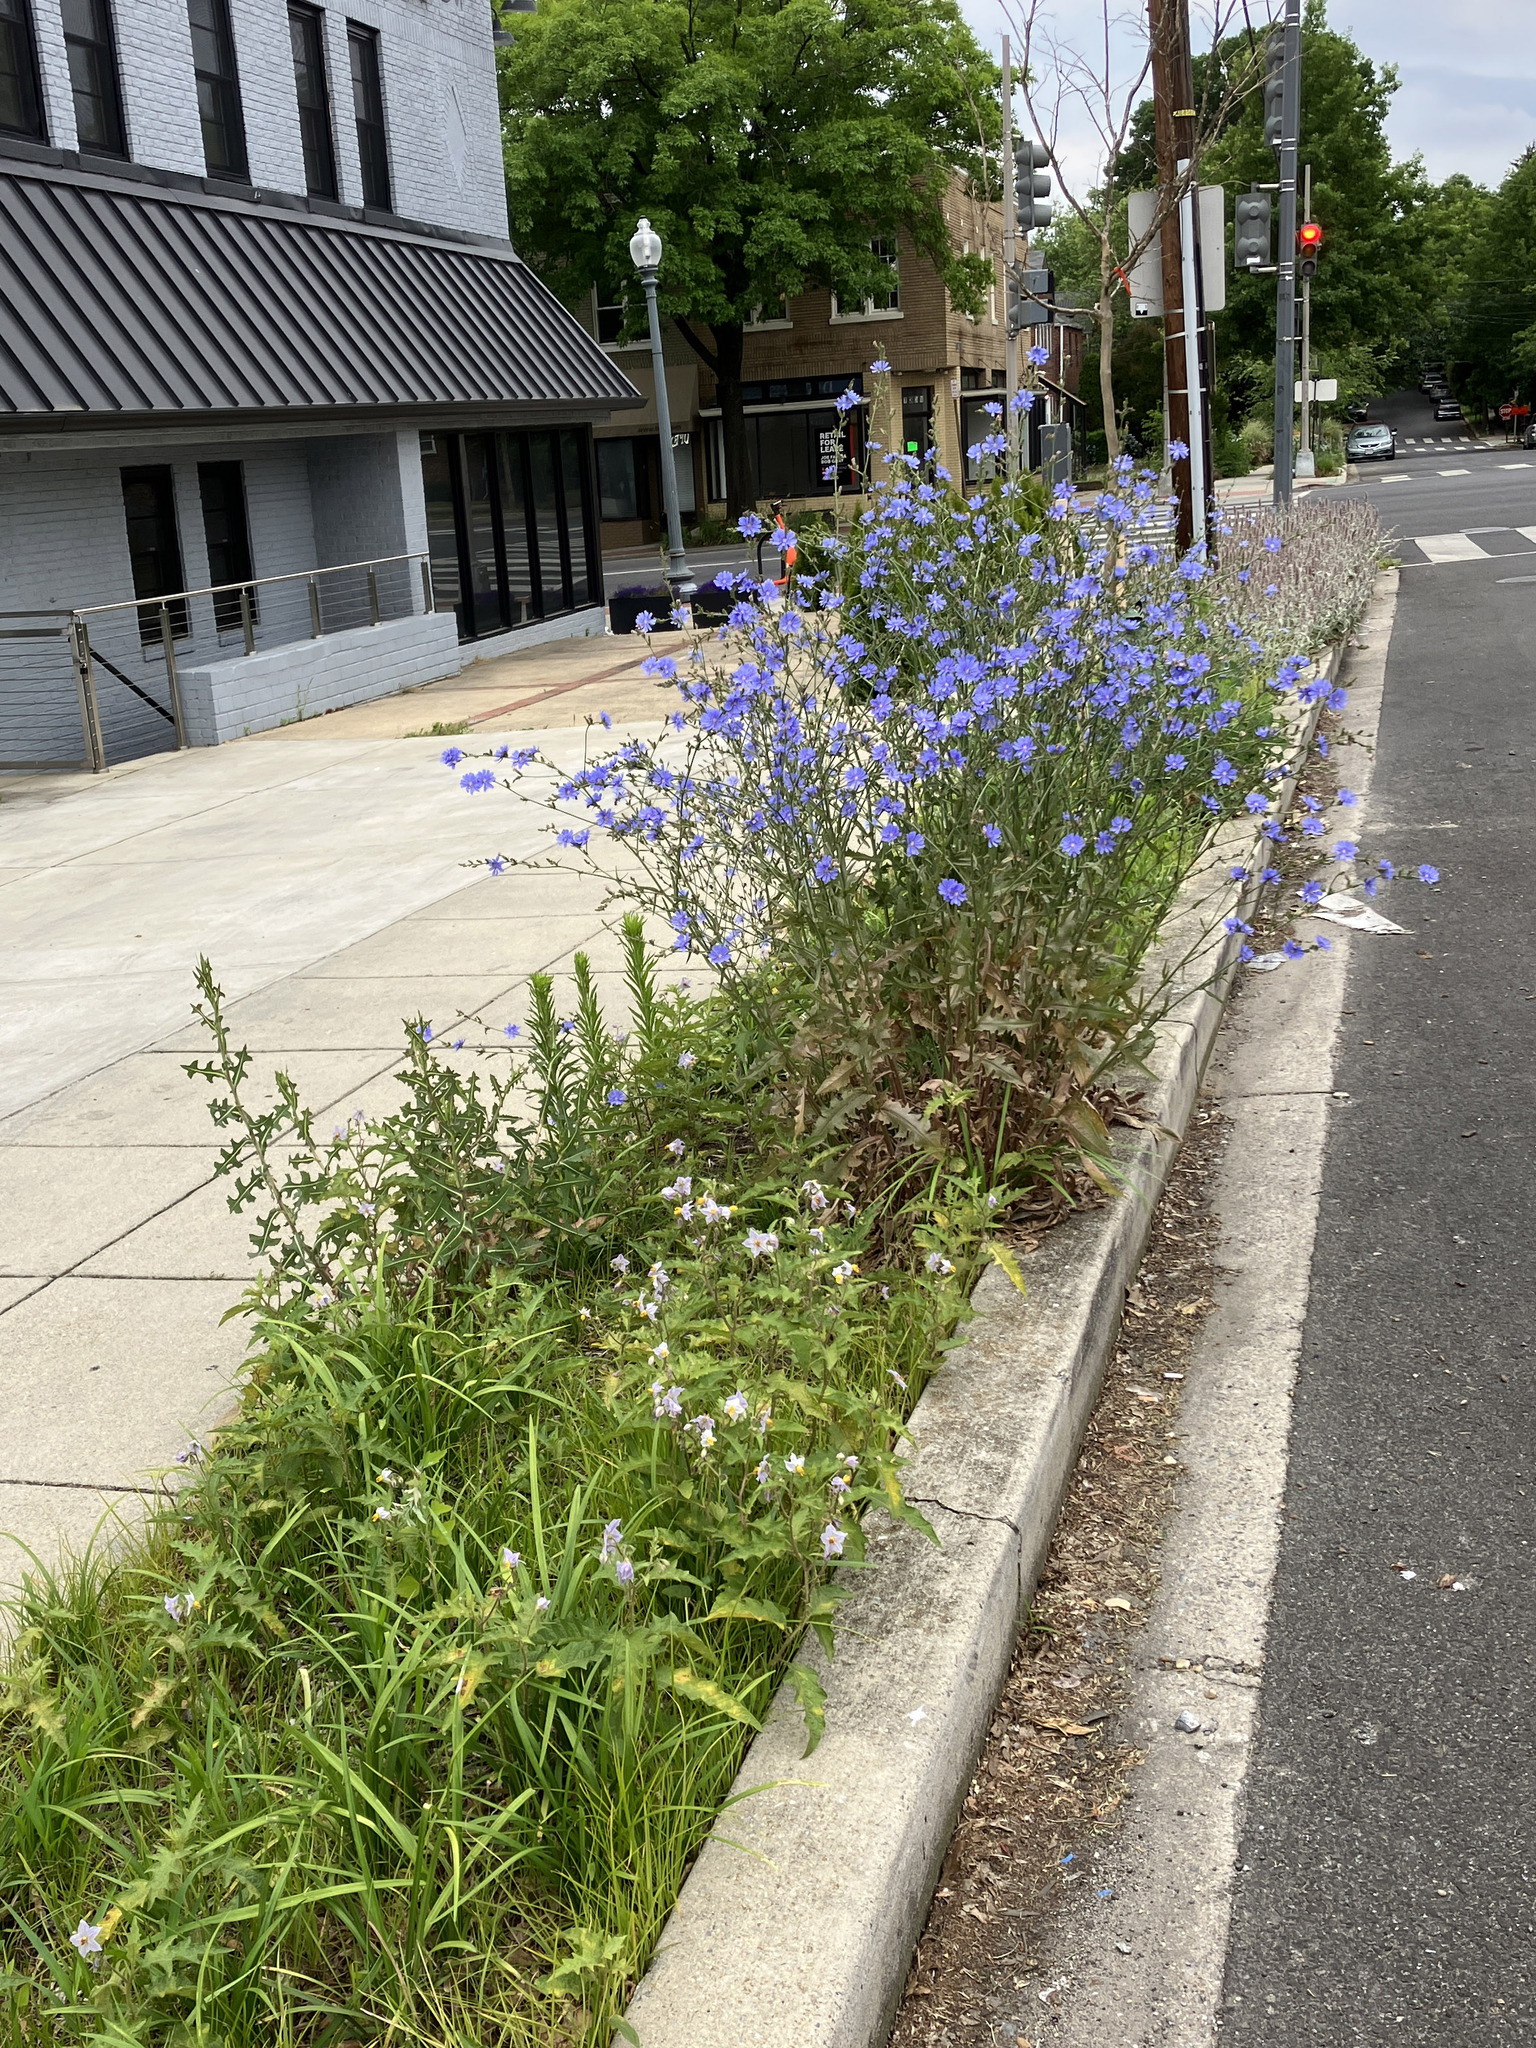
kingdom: Plantae
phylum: Tracheophyta
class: Magnoliopsida
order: Solanales
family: Solanaceae
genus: Solanum
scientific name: Solanum carolinense
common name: Horse-nettle
